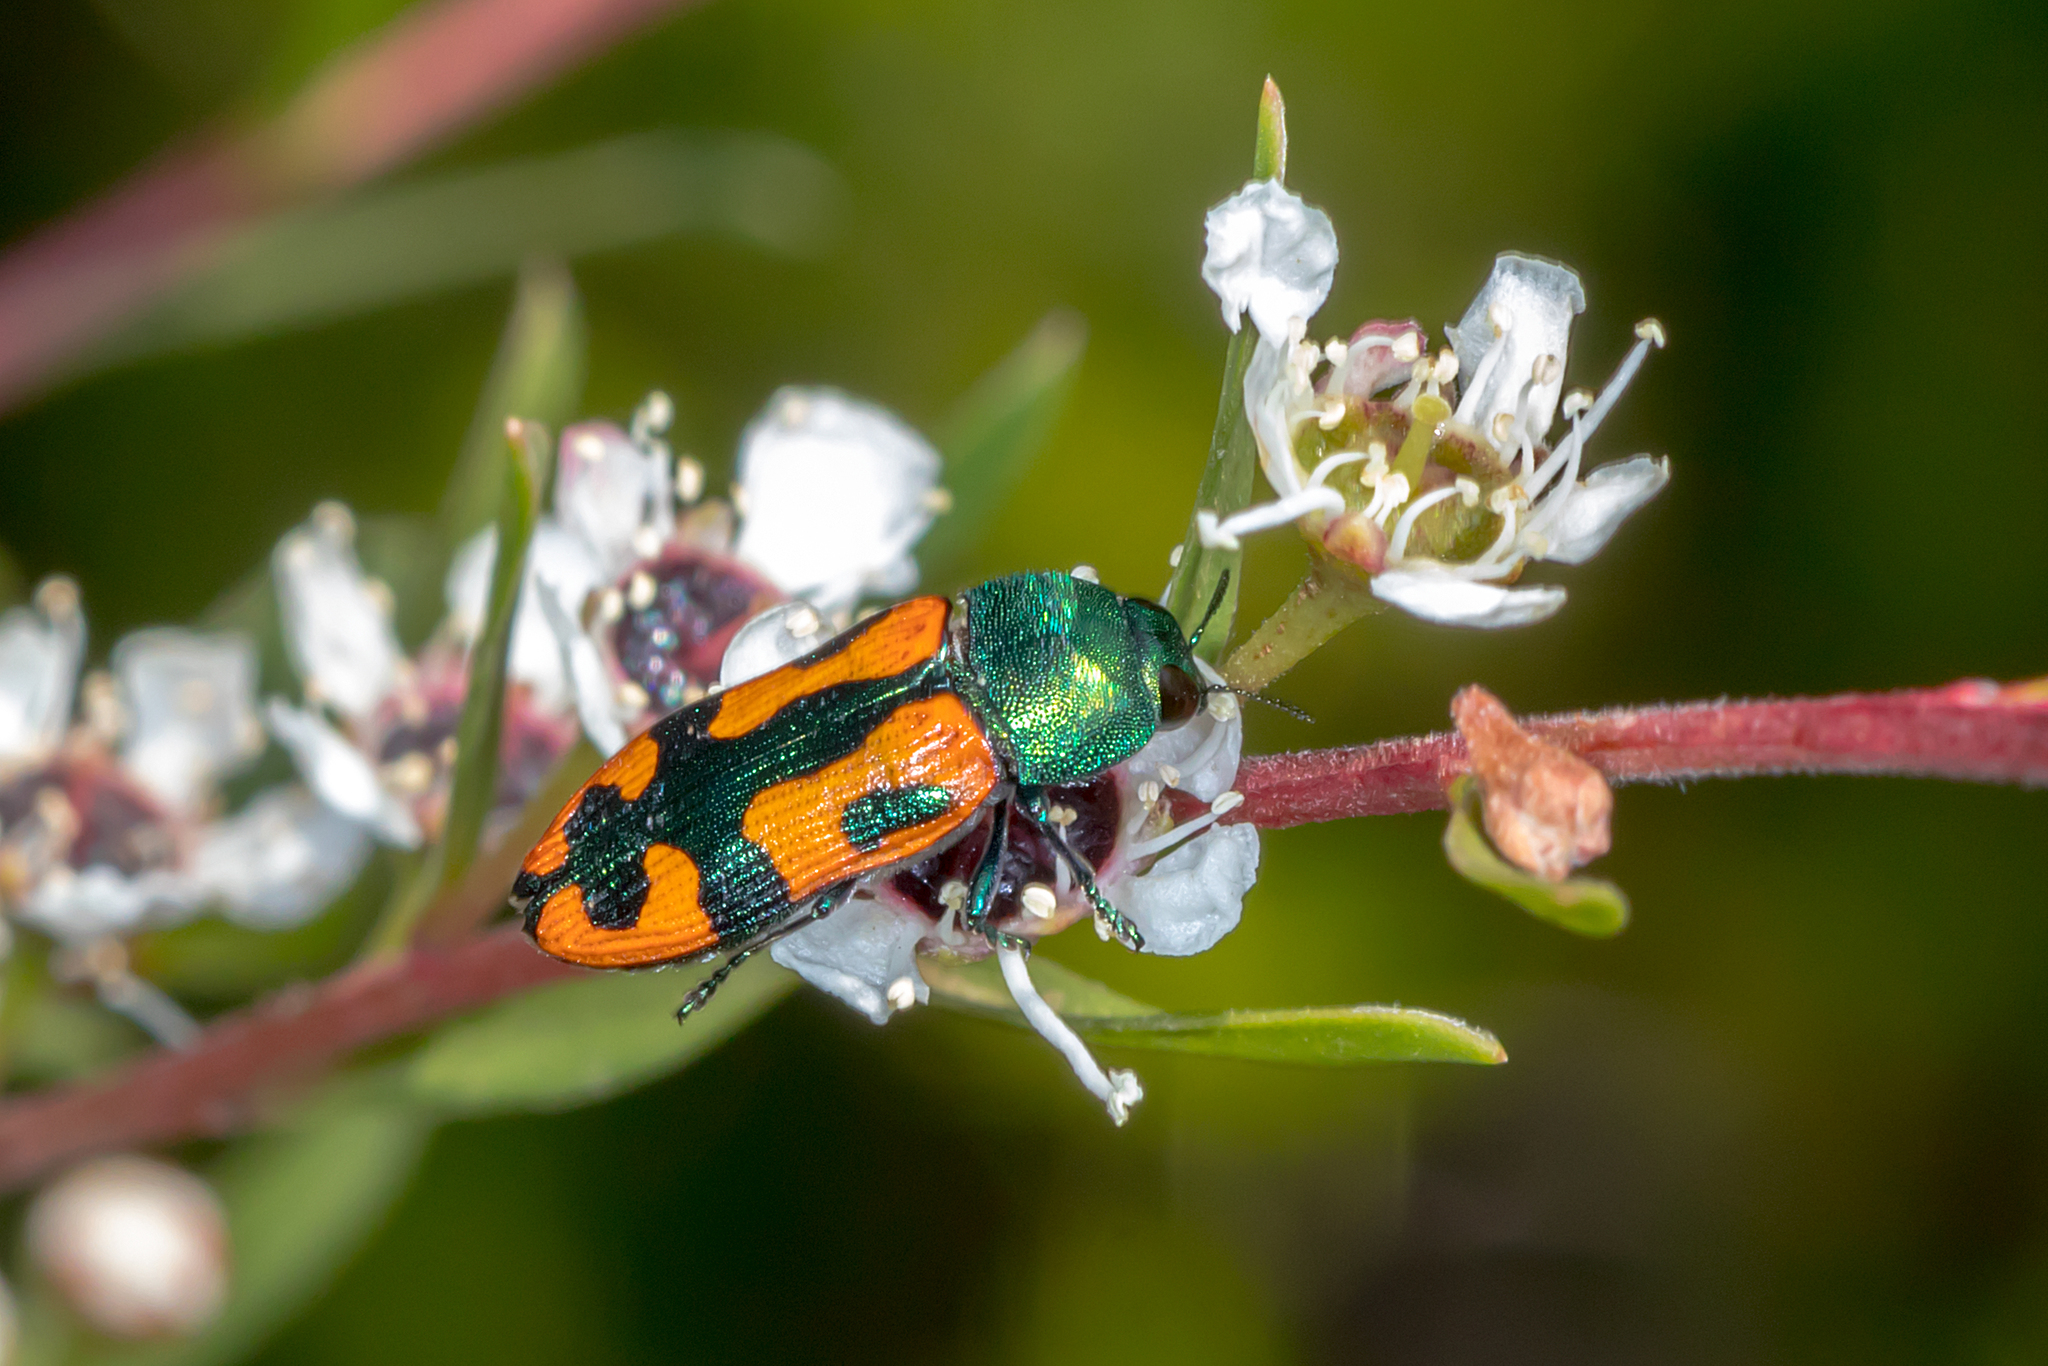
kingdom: Animalia
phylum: Arthropoda
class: Insecta
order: Coleoptera
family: Buprestidae
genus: Castiarina
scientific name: Castiarina scalaris
